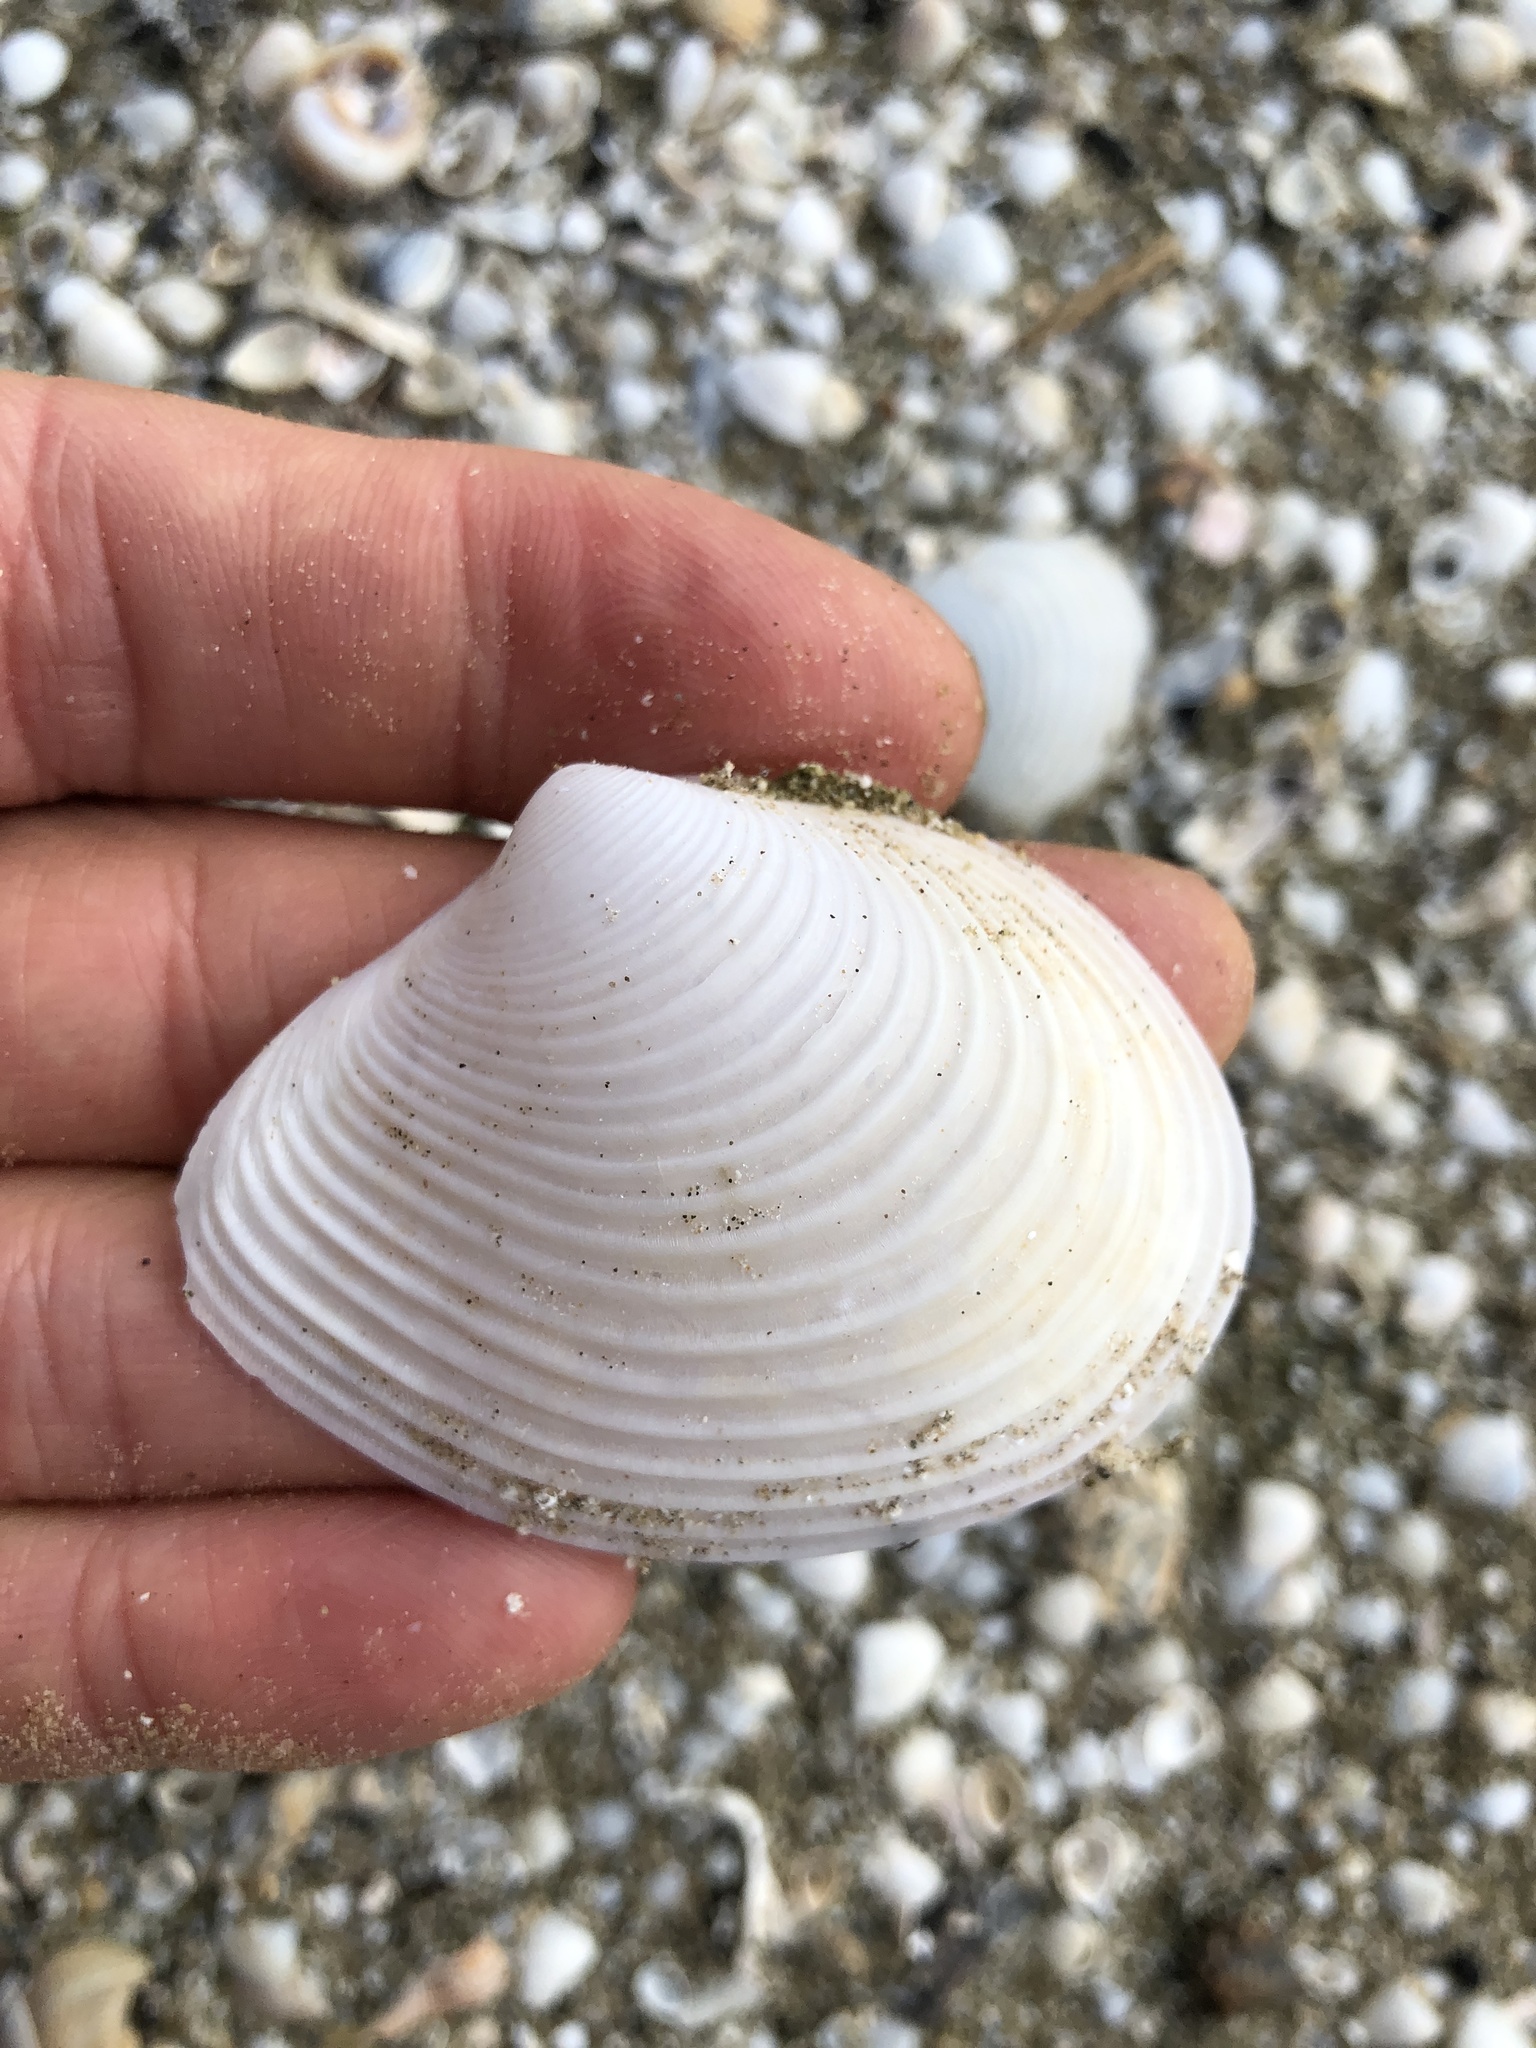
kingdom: Animalia
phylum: Mollusca
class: Bivalvia
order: Venerida
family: Anatinellidae
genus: Raeta
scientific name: Raeta plicatella
